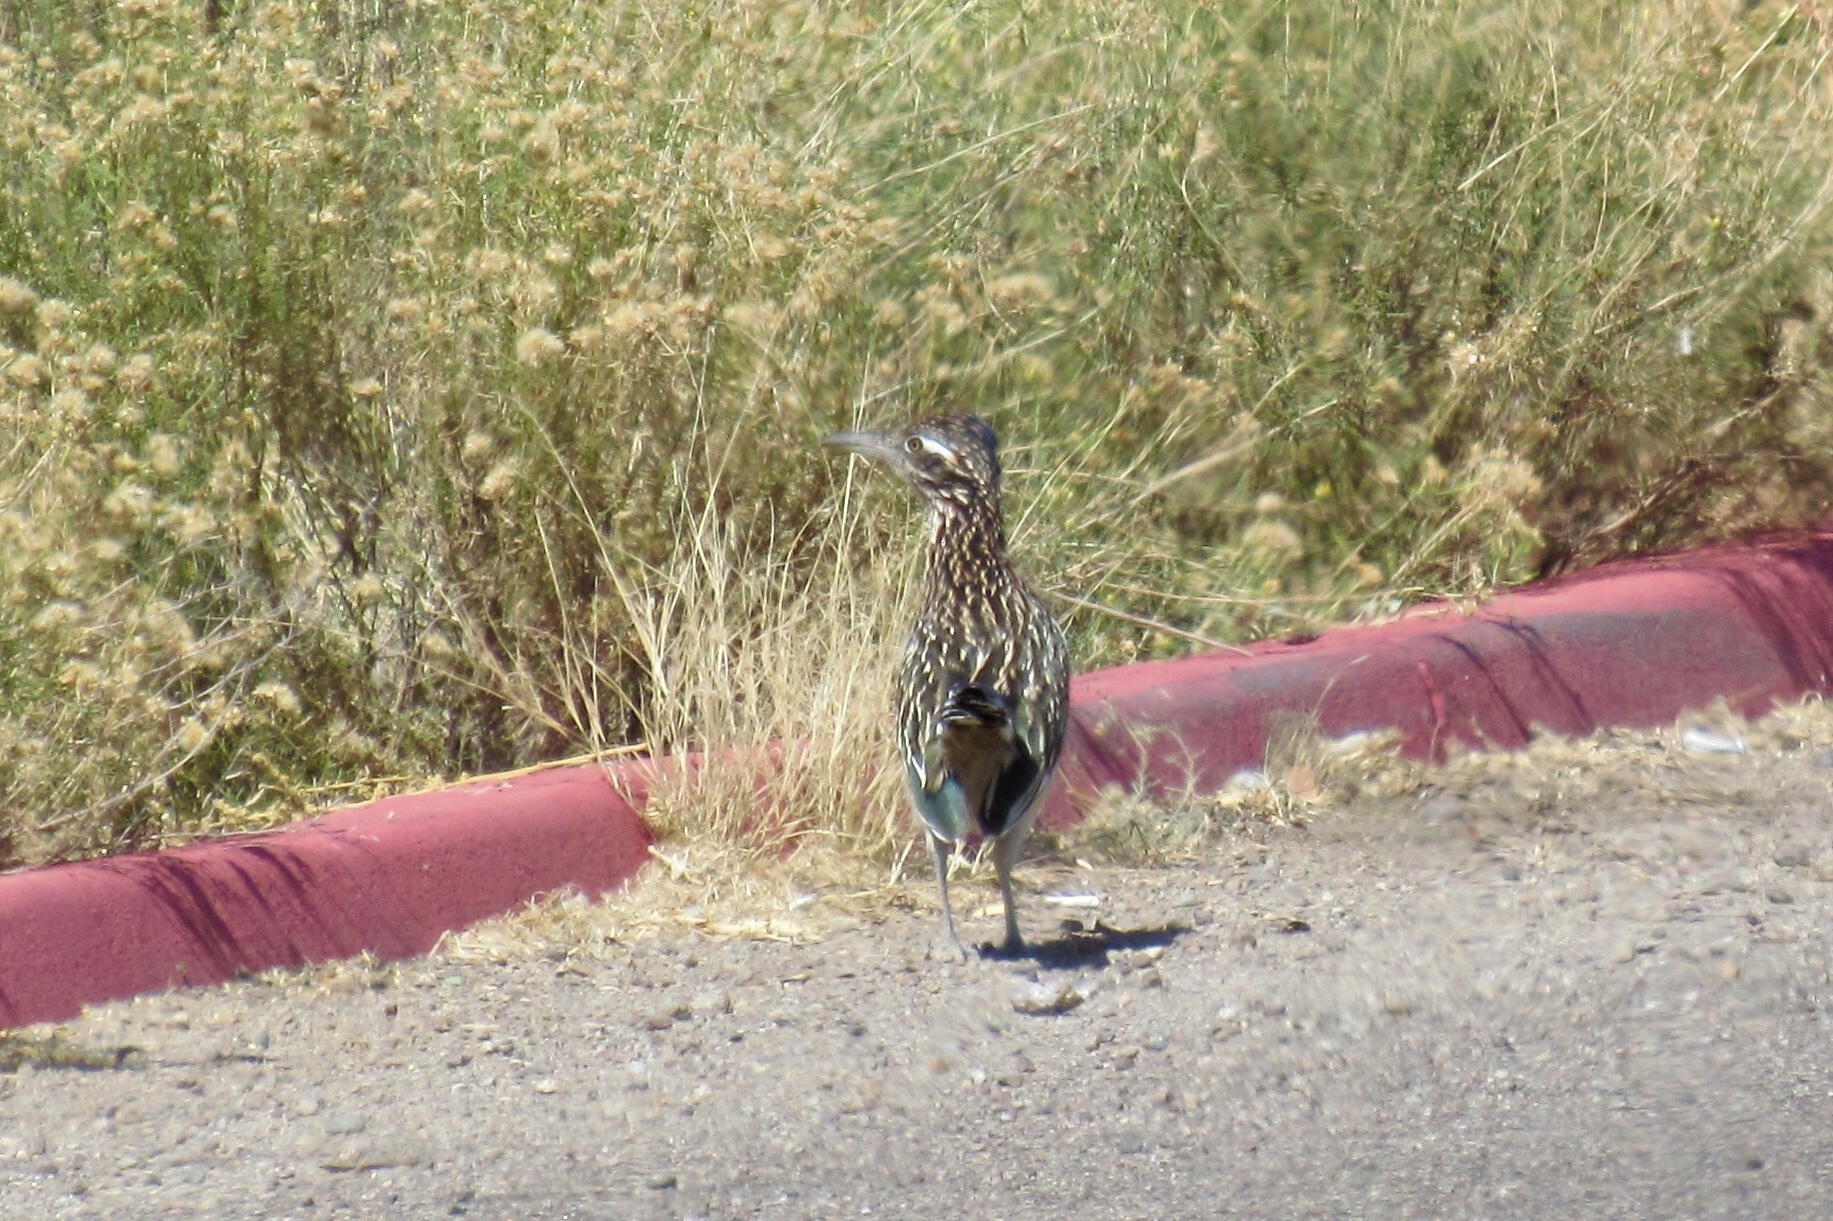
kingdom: Animalia
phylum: Chordata
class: Aves
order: Cuculiformes
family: Cuculidae
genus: Geococcyx
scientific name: Geococcyx californianus
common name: Greater roadrunner
